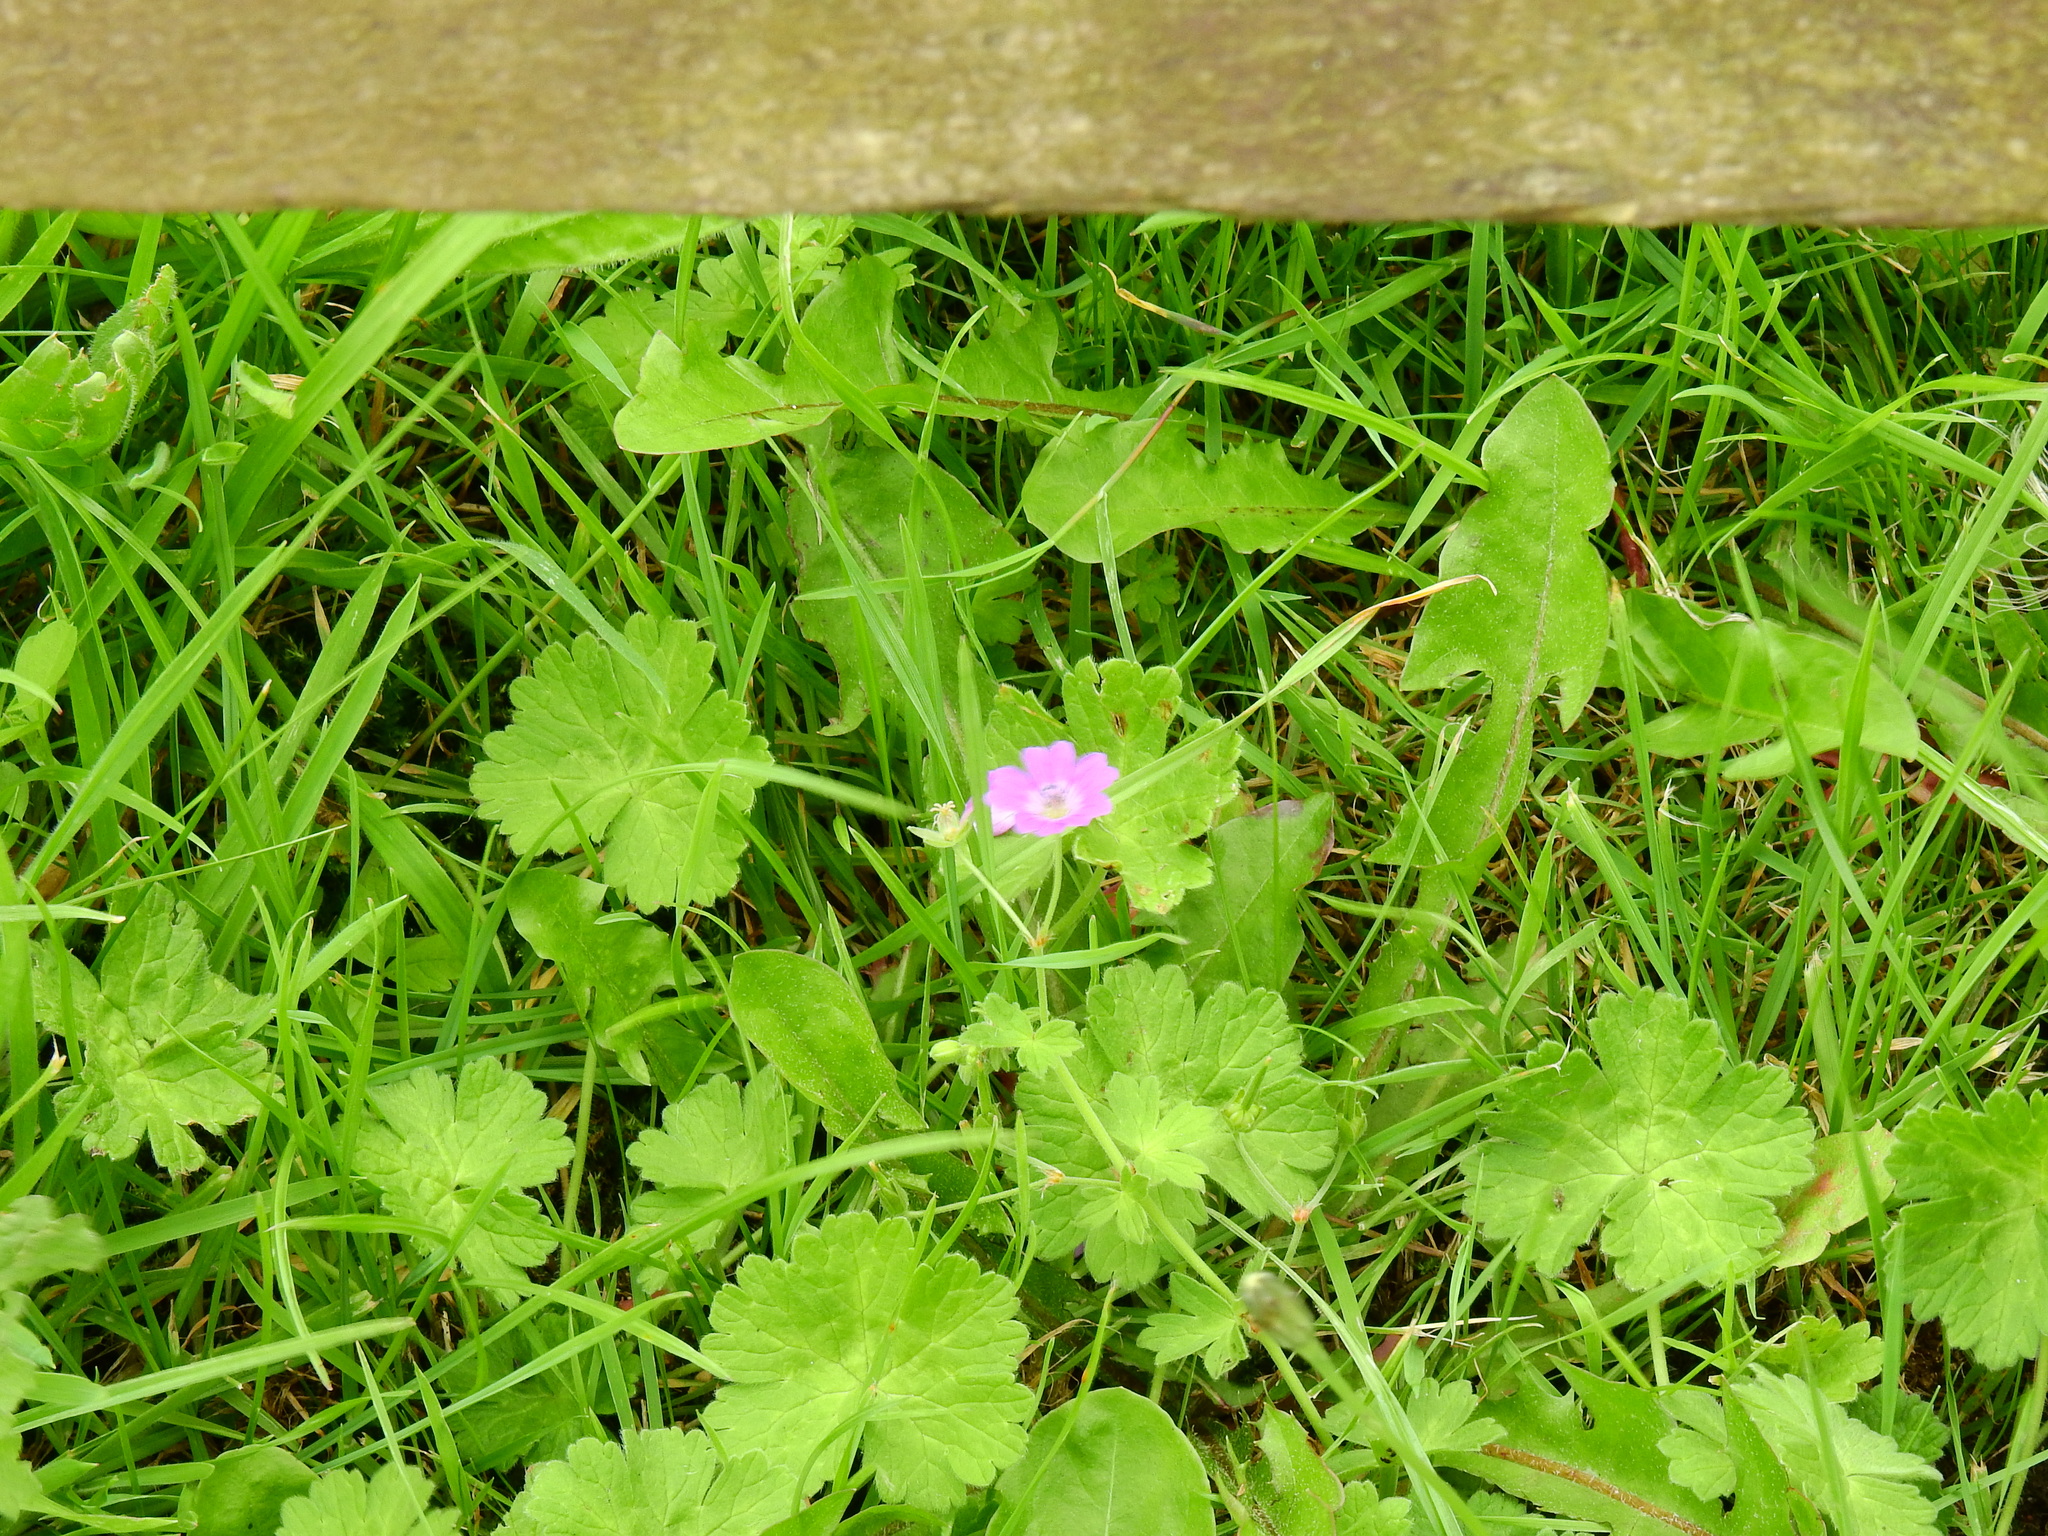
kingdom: Plantae
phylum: Tracheophyta
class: Magnoliopsida
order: Geraniales
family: Geraniaceae
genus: Geranium
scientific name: Geranium pyrenaicum
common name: Hedgerow crane's-bill
